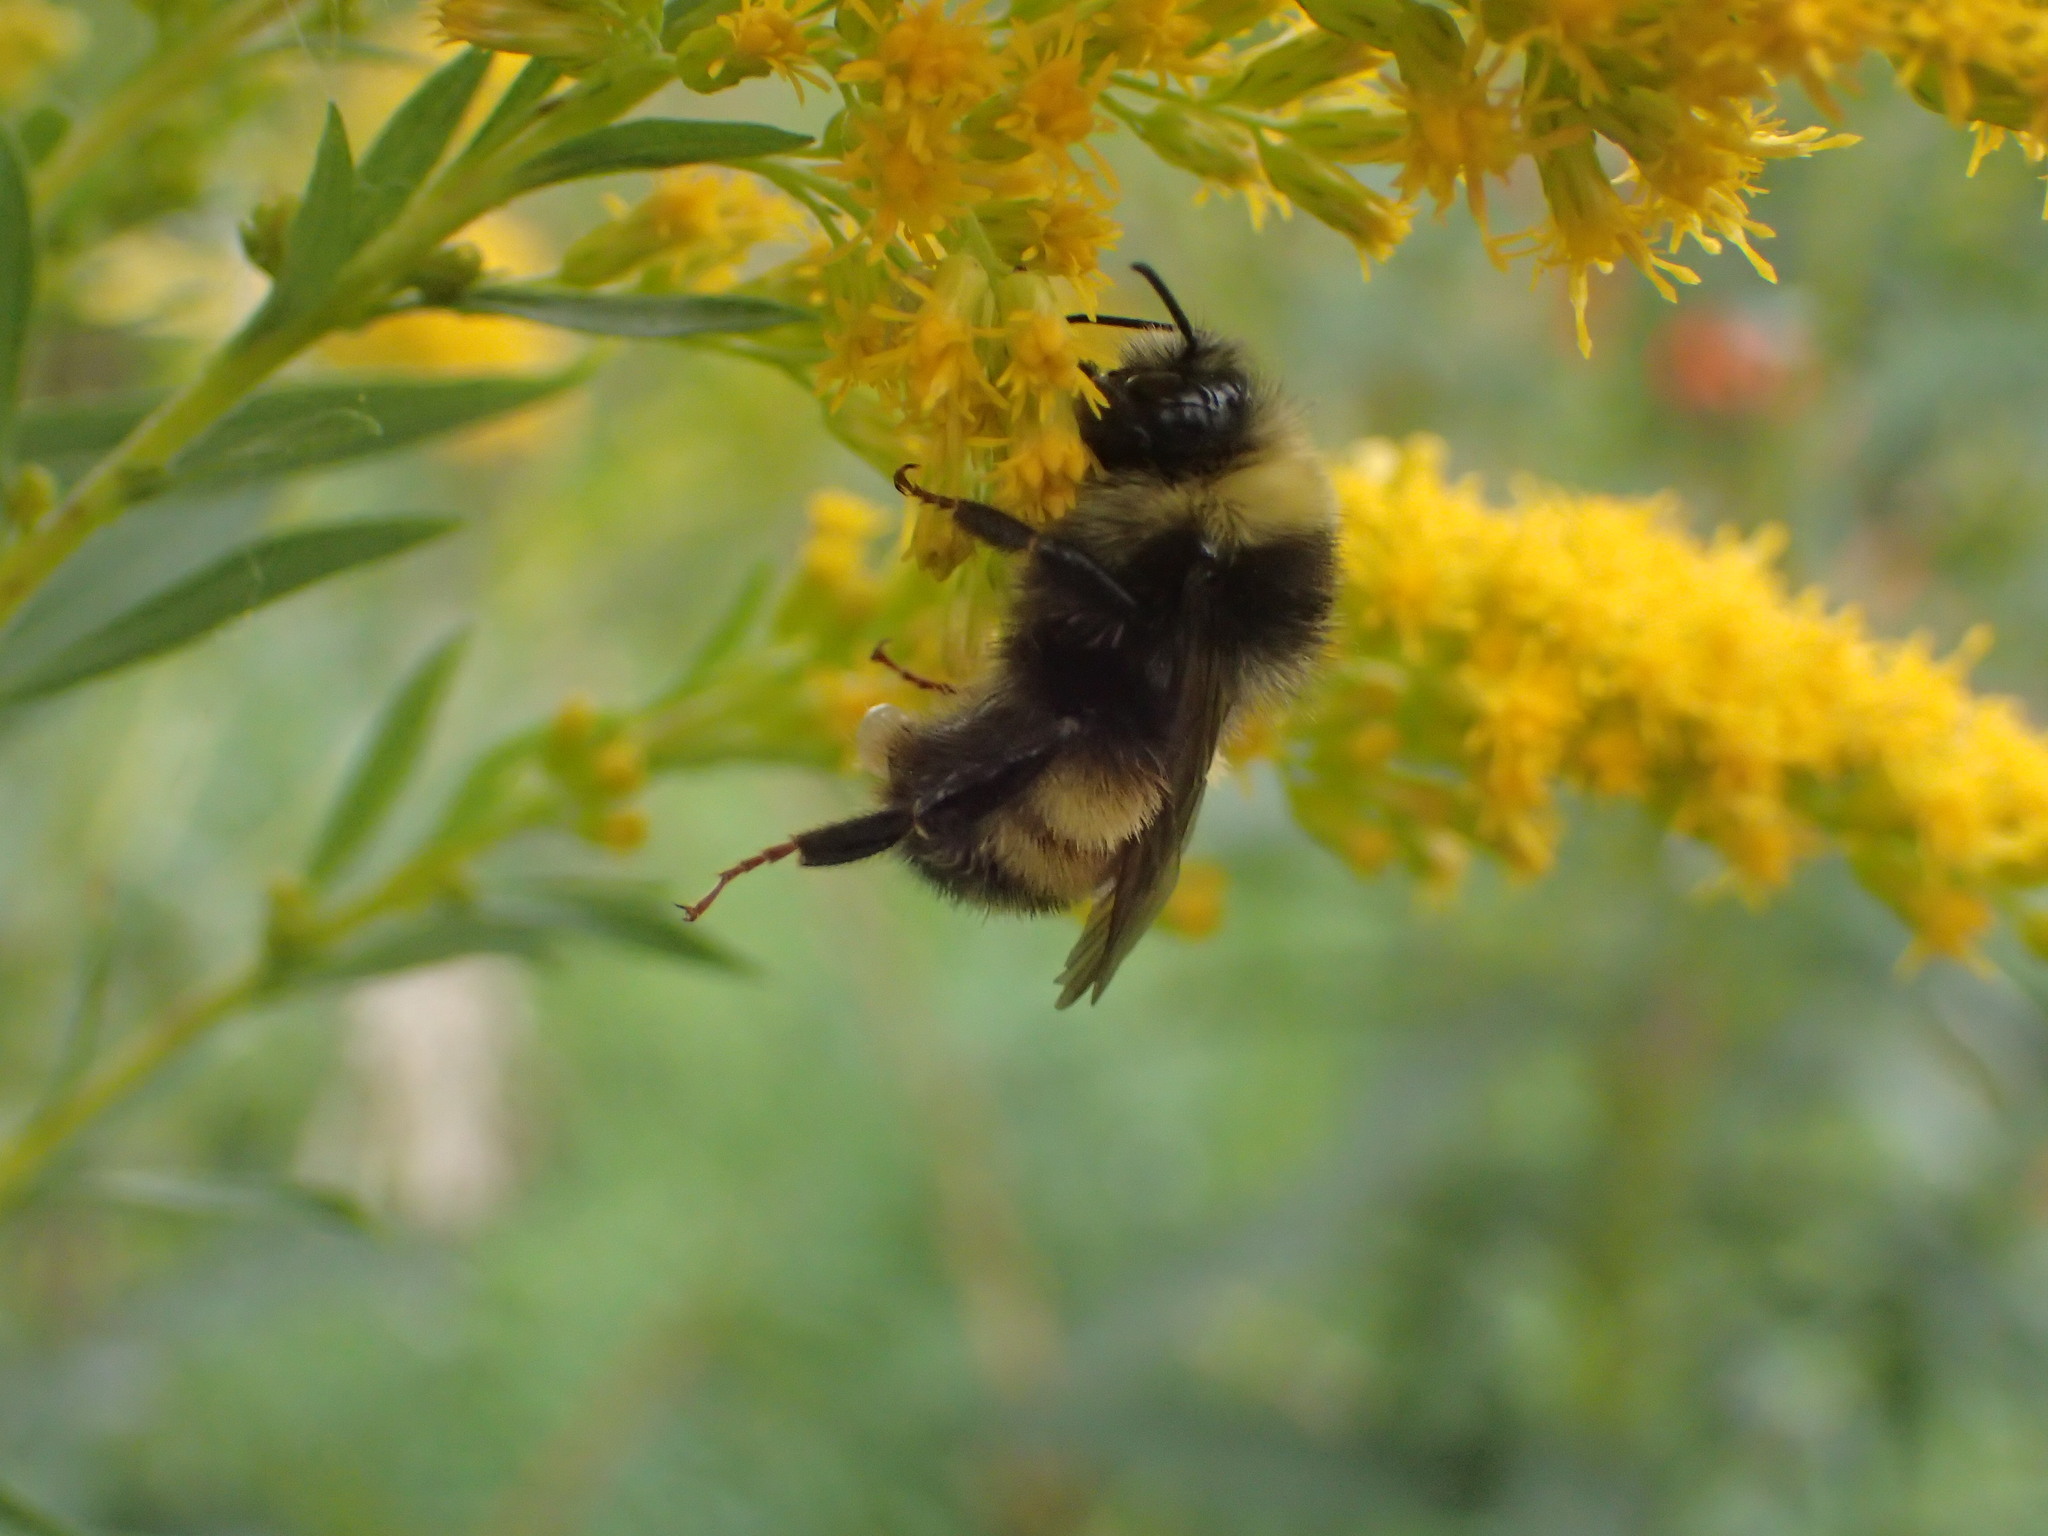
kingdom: Animalia
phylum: Arthropoda
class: Insecta
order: Hymenoptera
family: Apidae
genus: Bombus
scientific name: Bombus terricola
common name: Yellow-banded bumble bee
